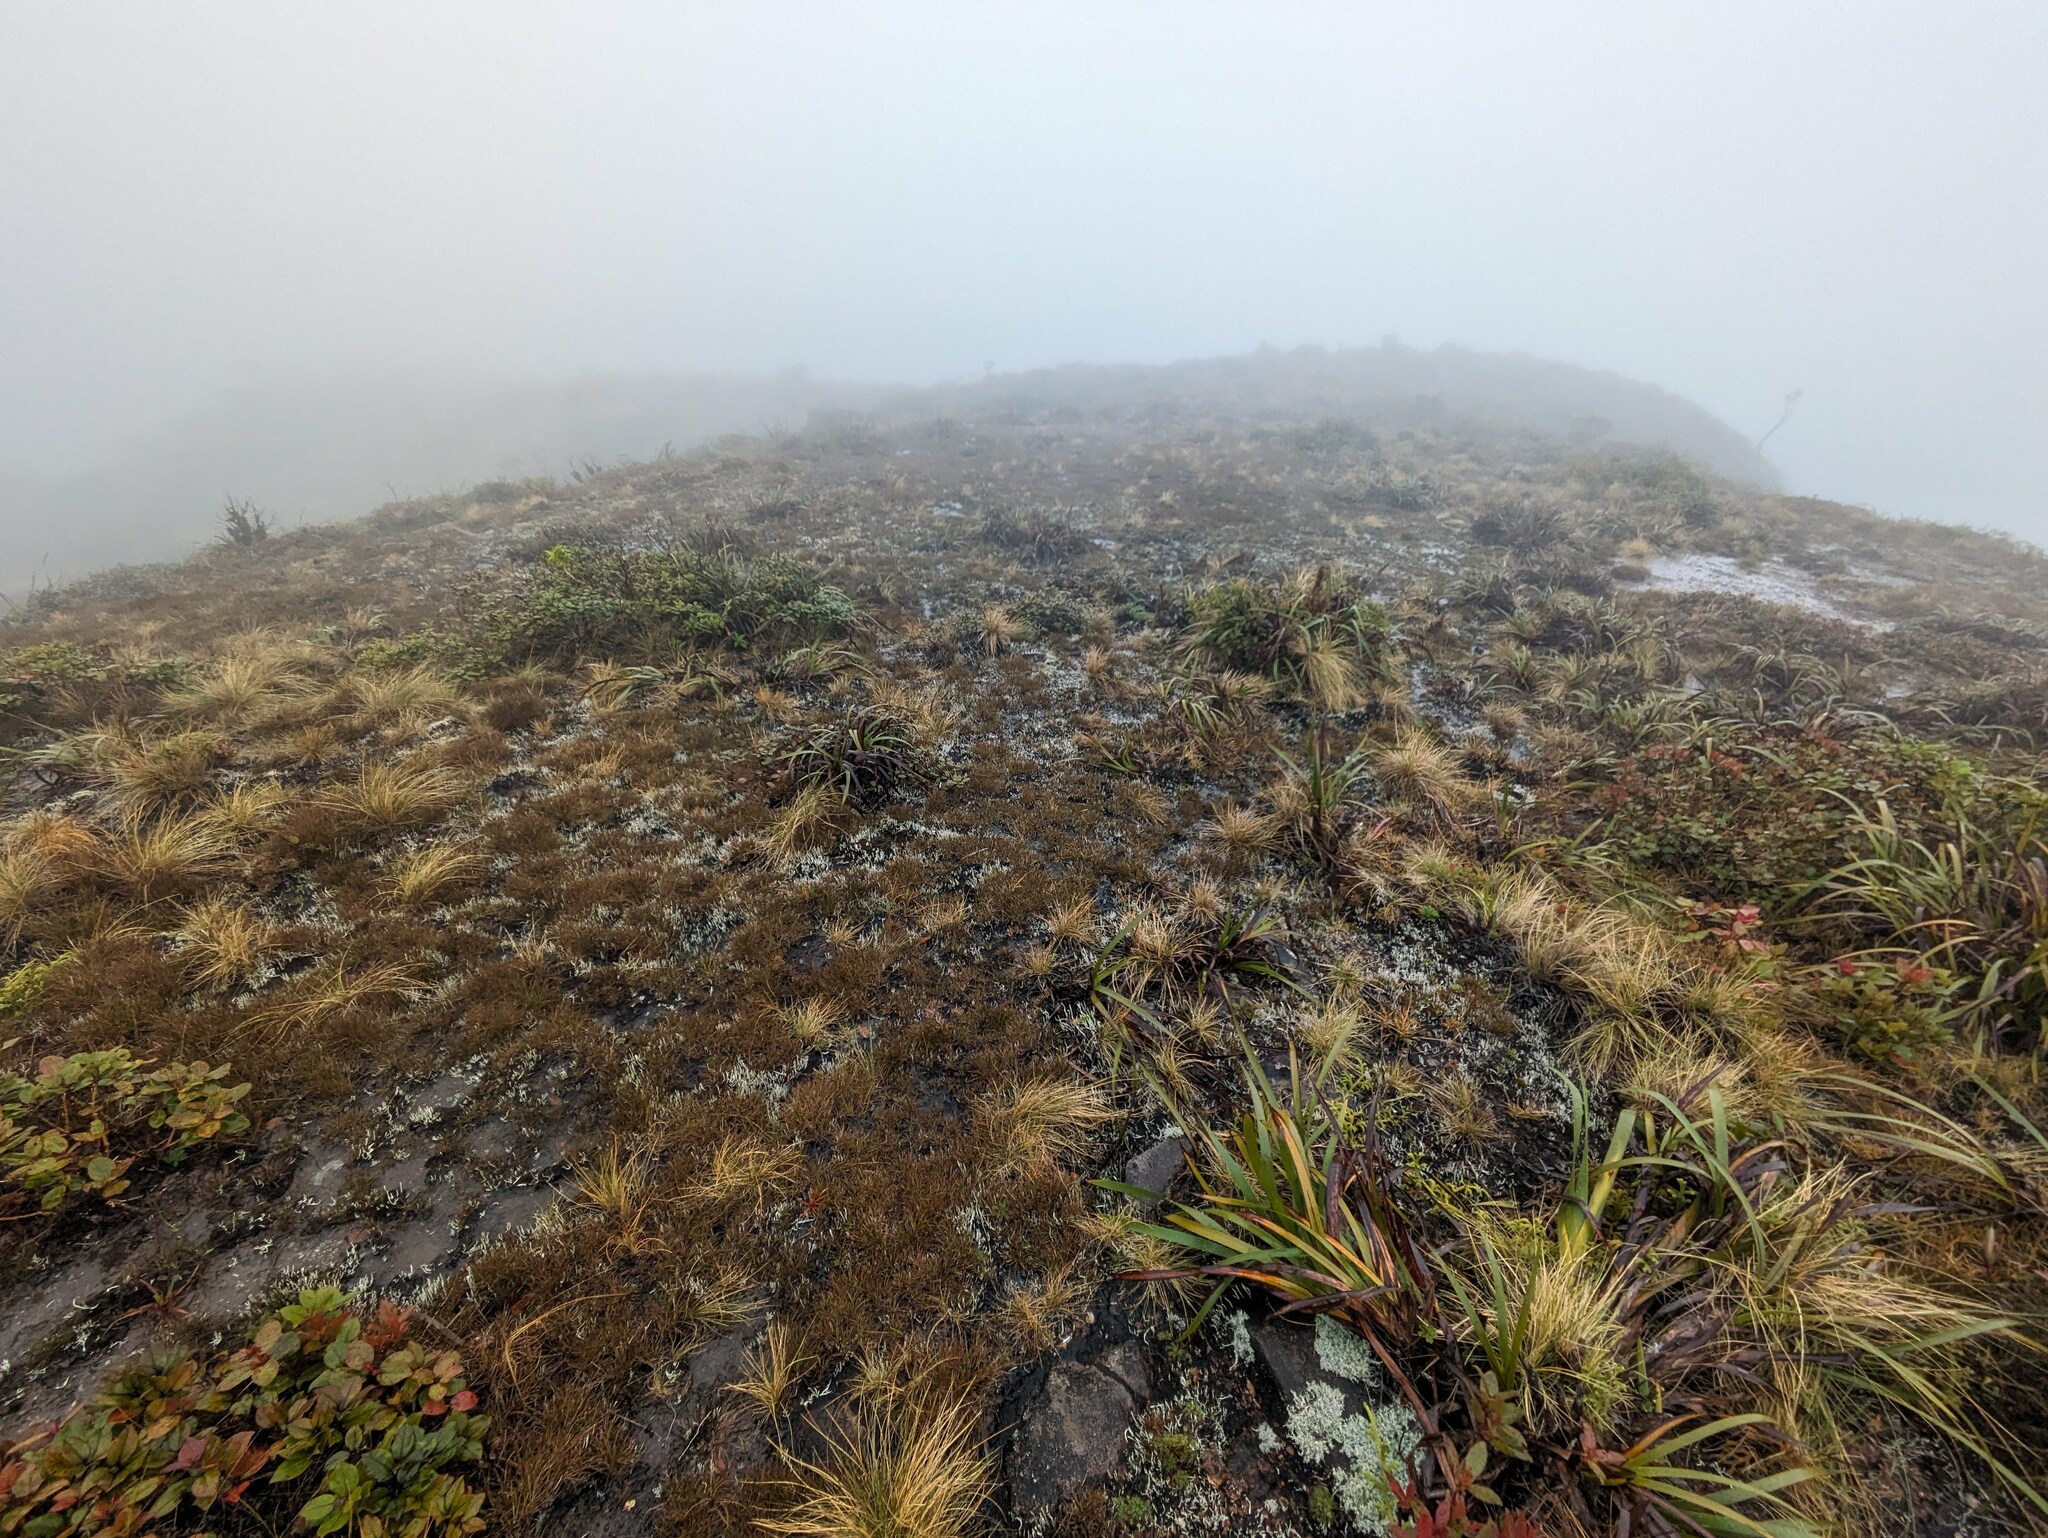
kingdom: Plantae
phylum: Tracheophyta
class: Magnoliopsida
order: Lamiales
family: Plantaginaceae
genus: Plantago
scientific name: Plantago pachyphylla
